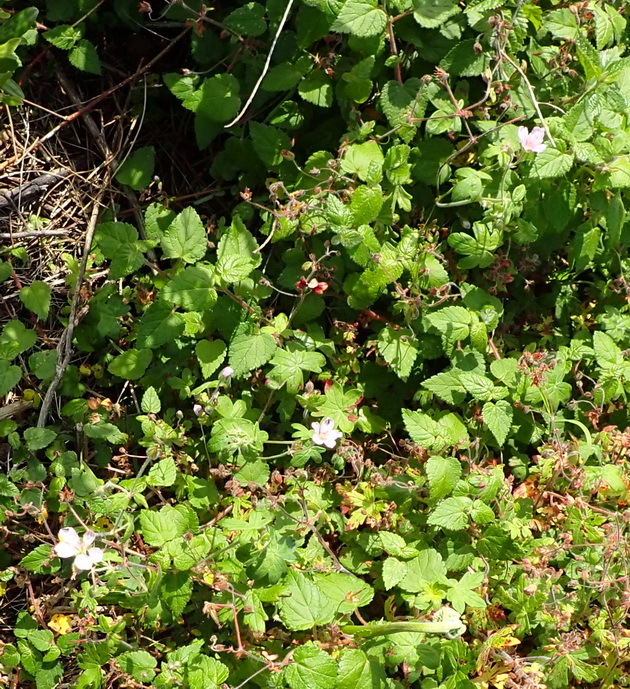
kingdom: Plantae
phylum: Tracheophyta
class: Magnoliopsida
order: Geraniales
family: Geraniaceae
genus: Geranium
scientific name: Geranium ornithopodon
